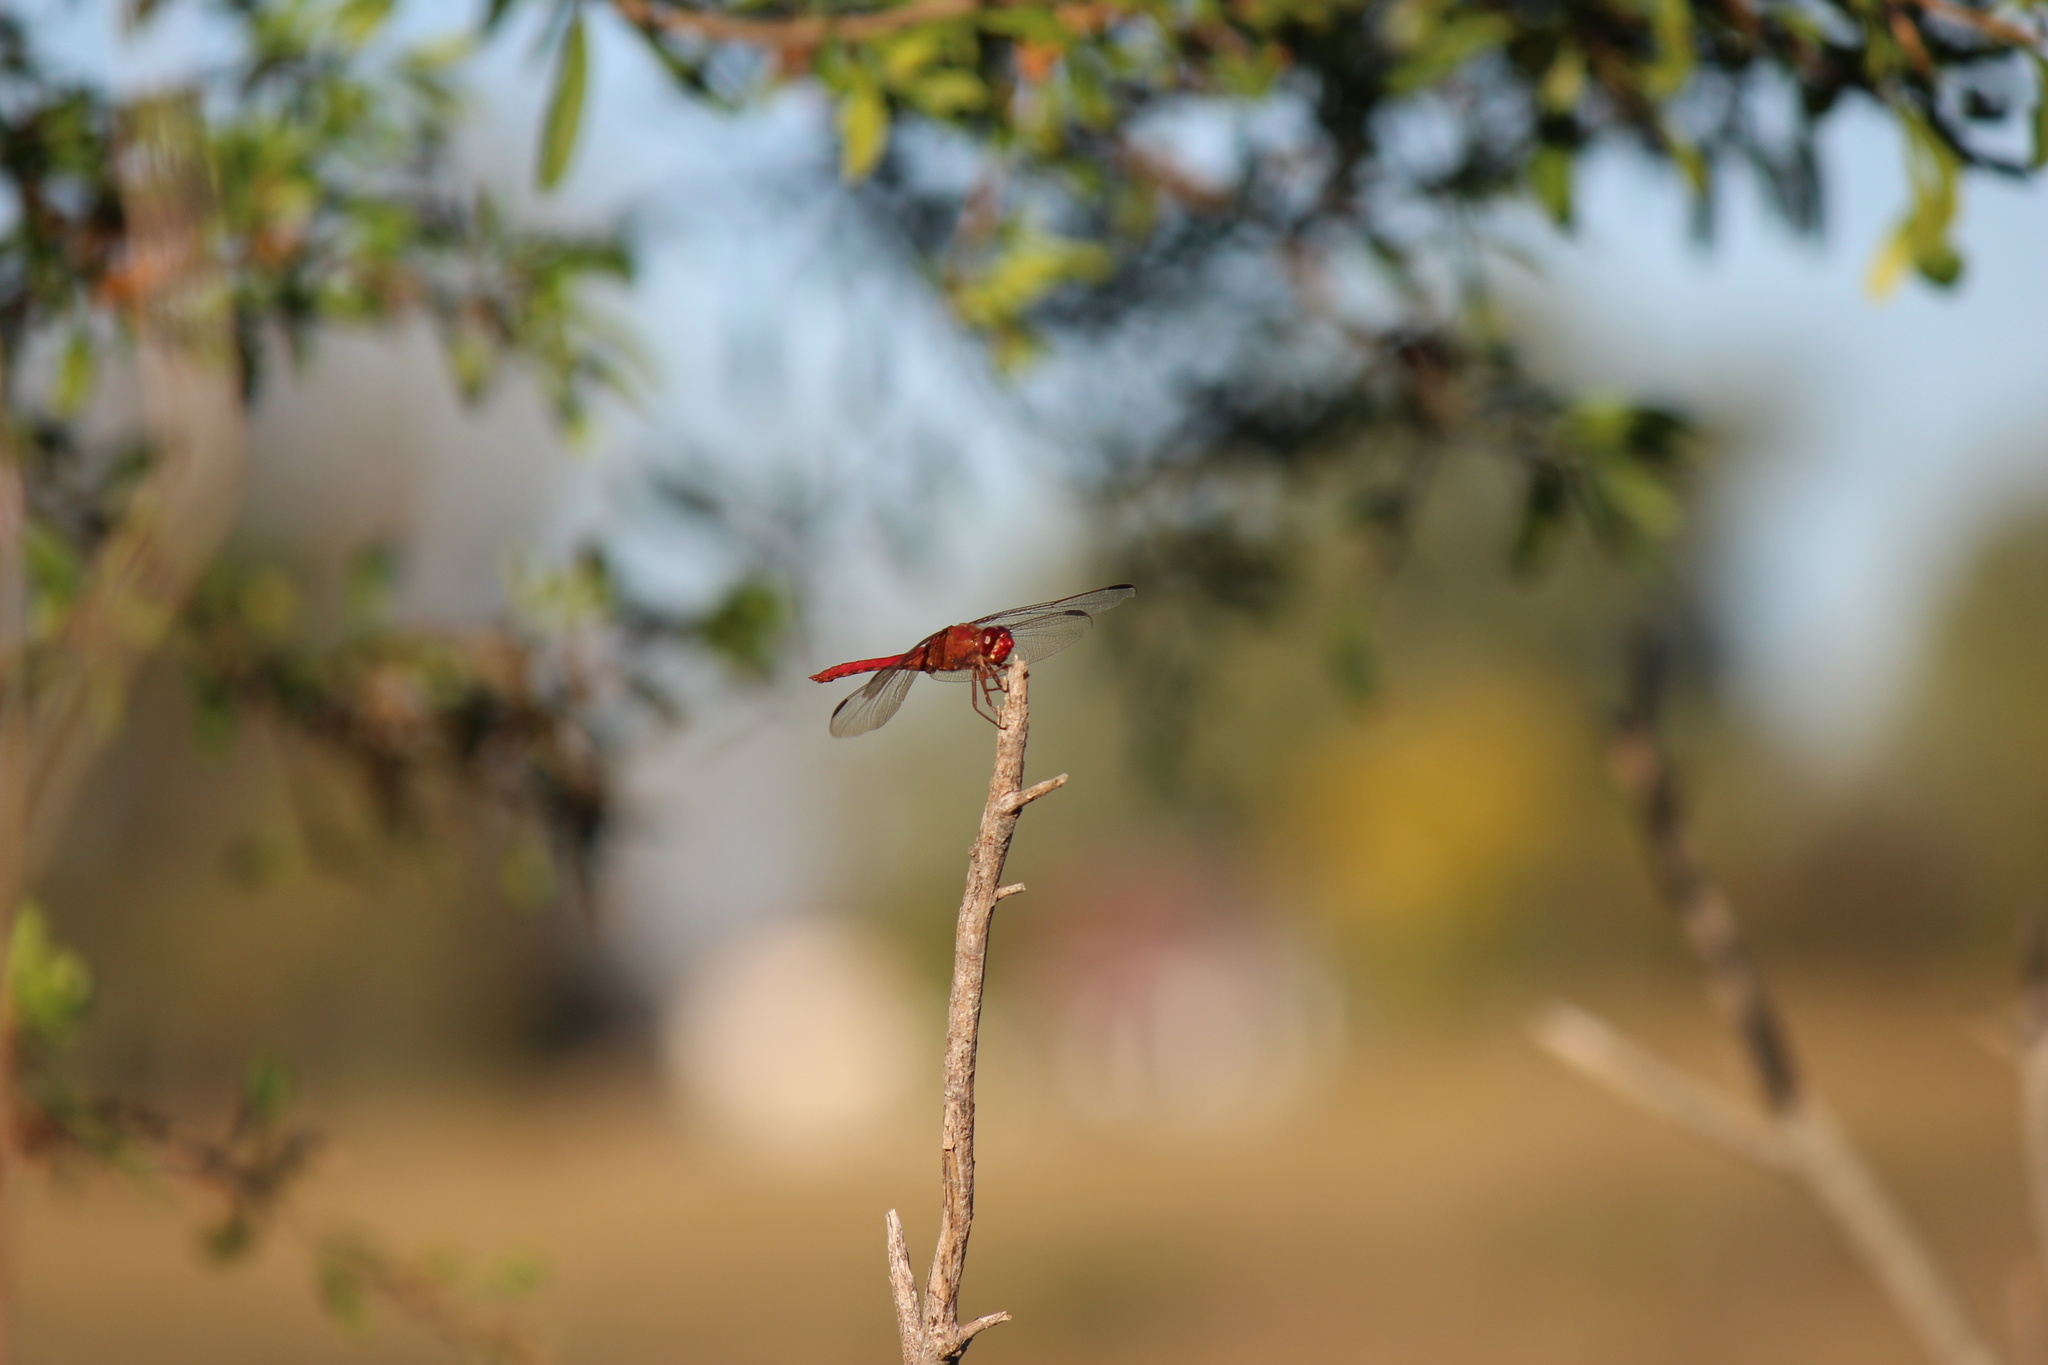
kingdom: Animalia
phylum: Arthropoda
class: Insecta
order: Odonata
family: Libellulidae
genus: Orthemis
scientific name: Orthemis nodiplaga
